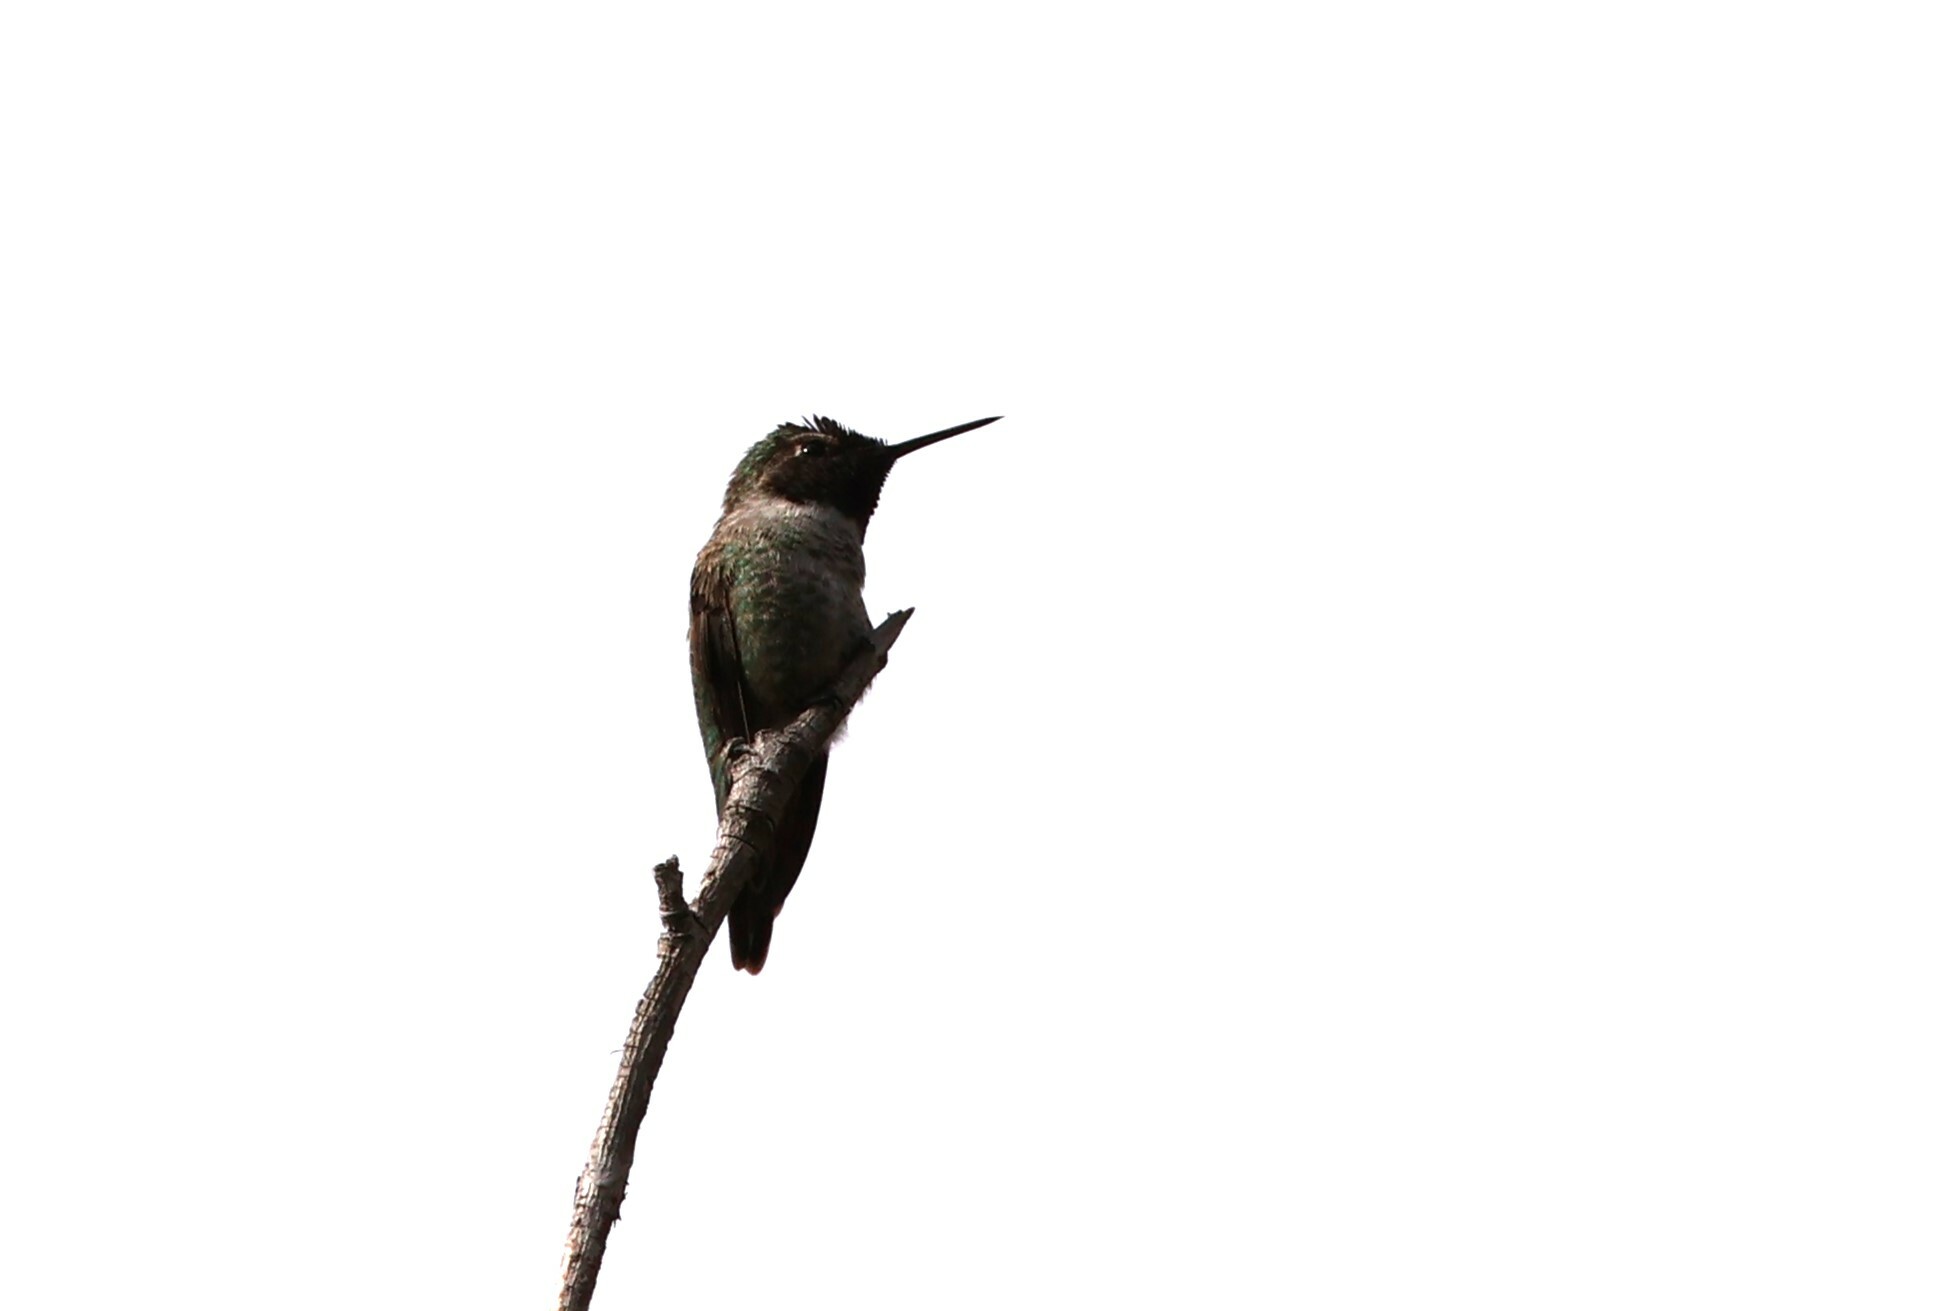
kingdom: Animalia
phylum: Chordata
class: Aves
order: Apodiformes
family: Trochilidae
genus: Calypte
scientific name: Calypte anna
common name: Anna's hummingbird
